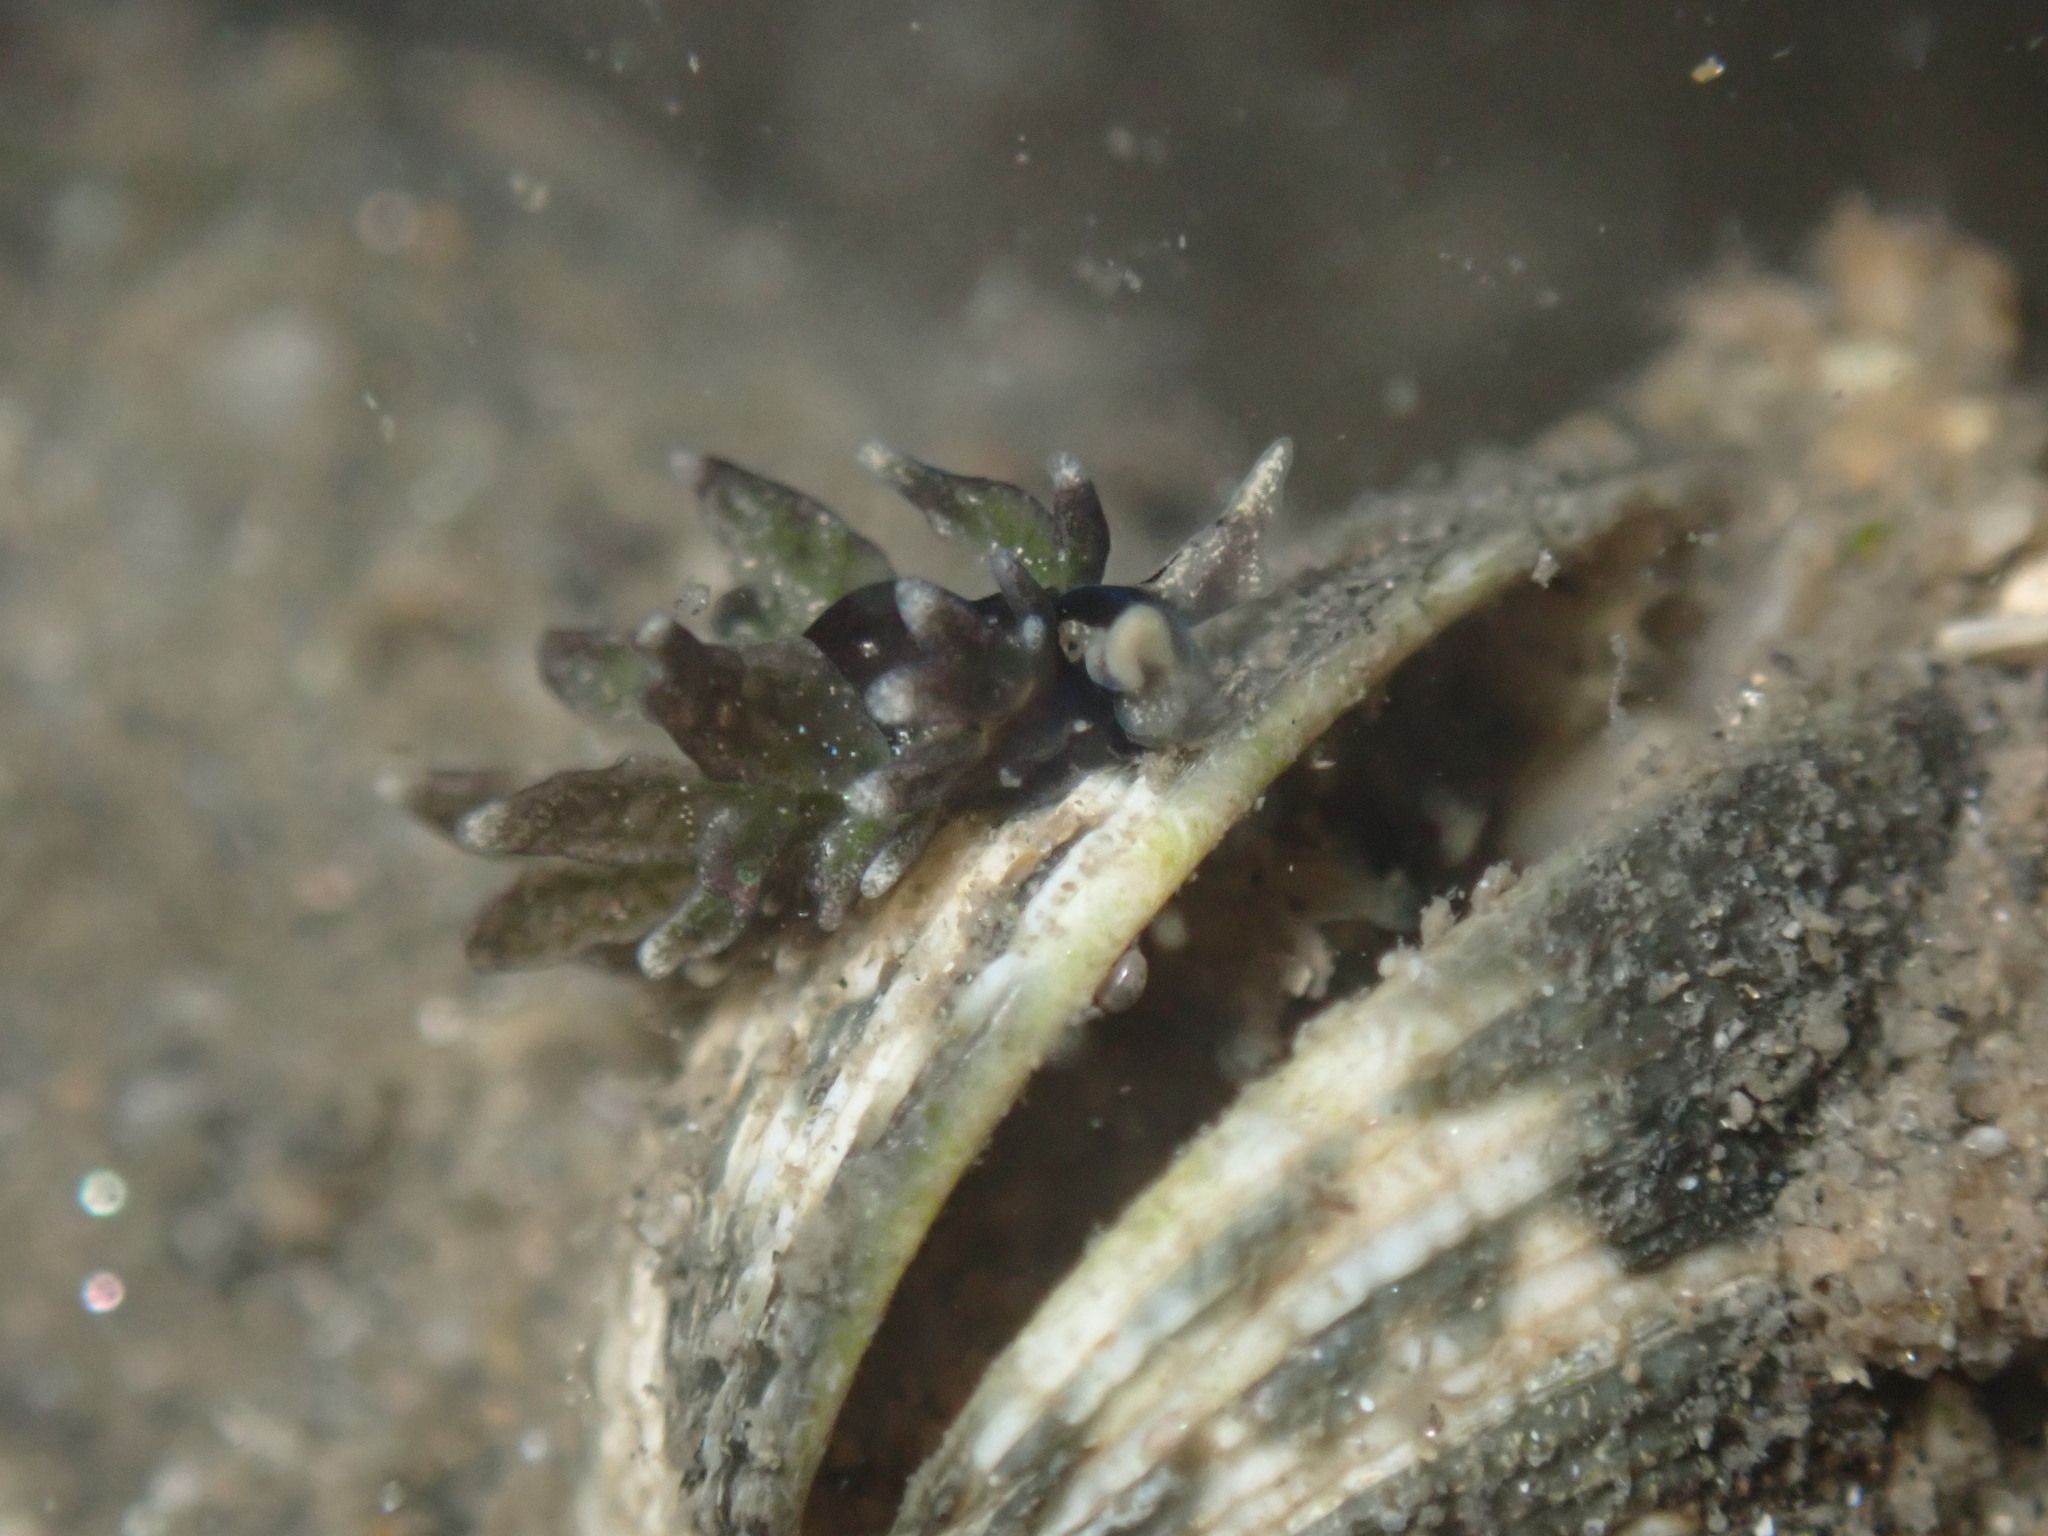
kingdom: Animalia
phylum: Mollusca
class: Gastropoda
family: Hermaeidae
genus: Aplysiopsis
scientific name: Aplysiopsis enteromorphae
